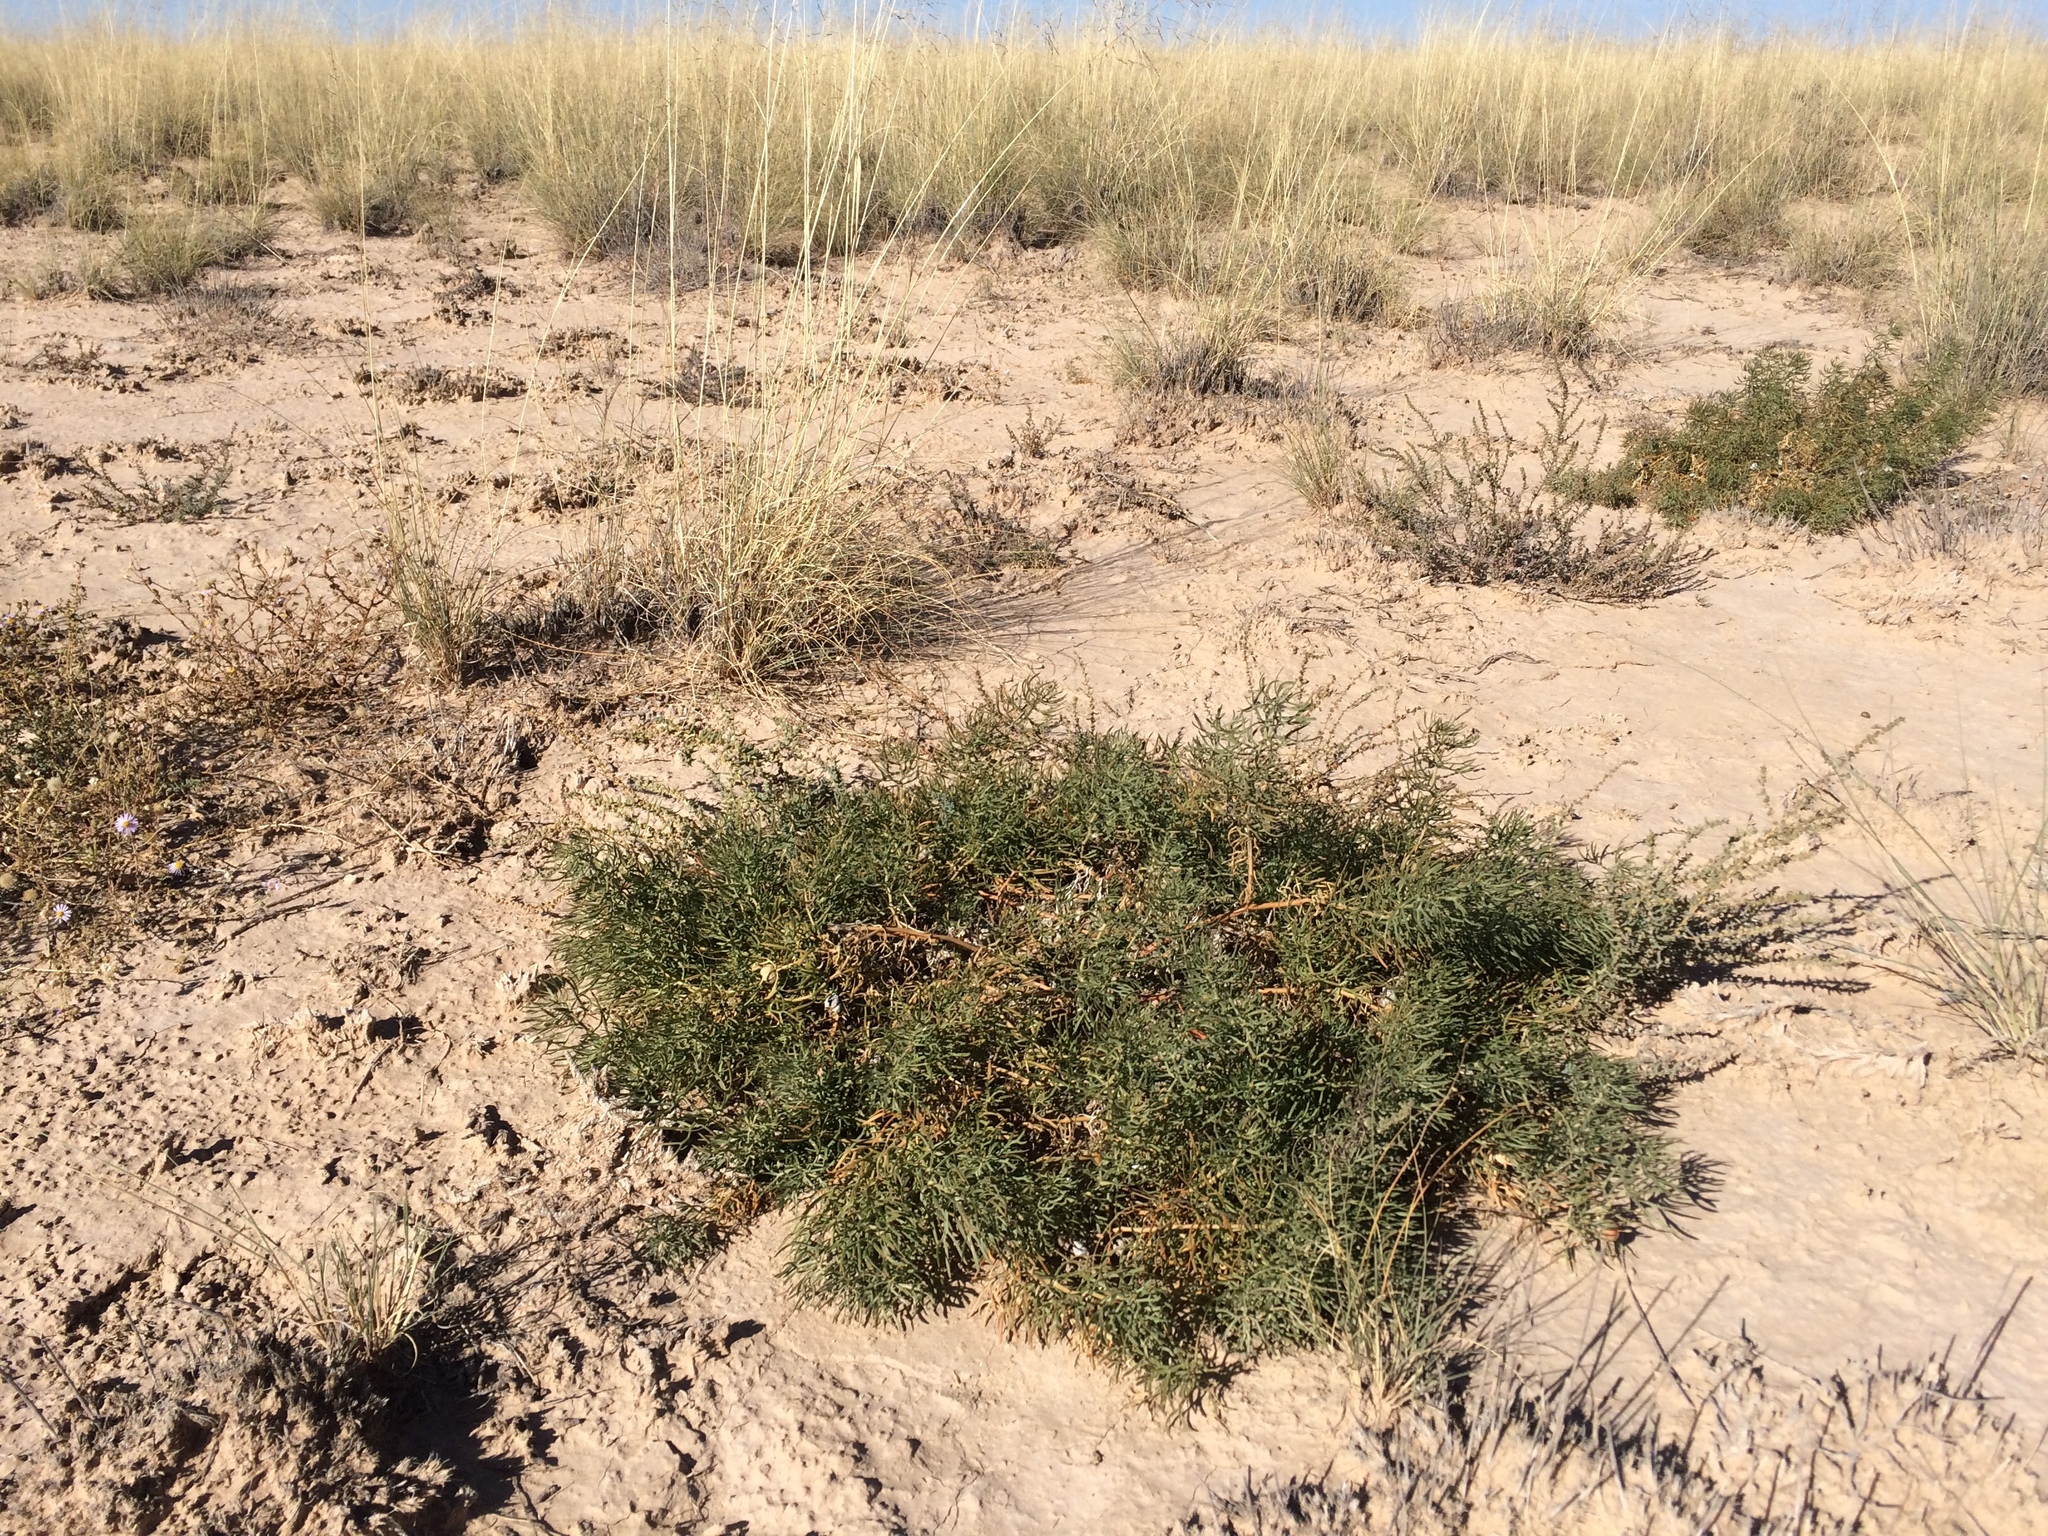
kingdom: Plantae
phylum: Tracheophyta
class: Magnoliopsida
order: Sapindales
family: Tetradiclidaceae
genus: Peganum
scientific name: Peganum harmala
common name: Harmal peganum
